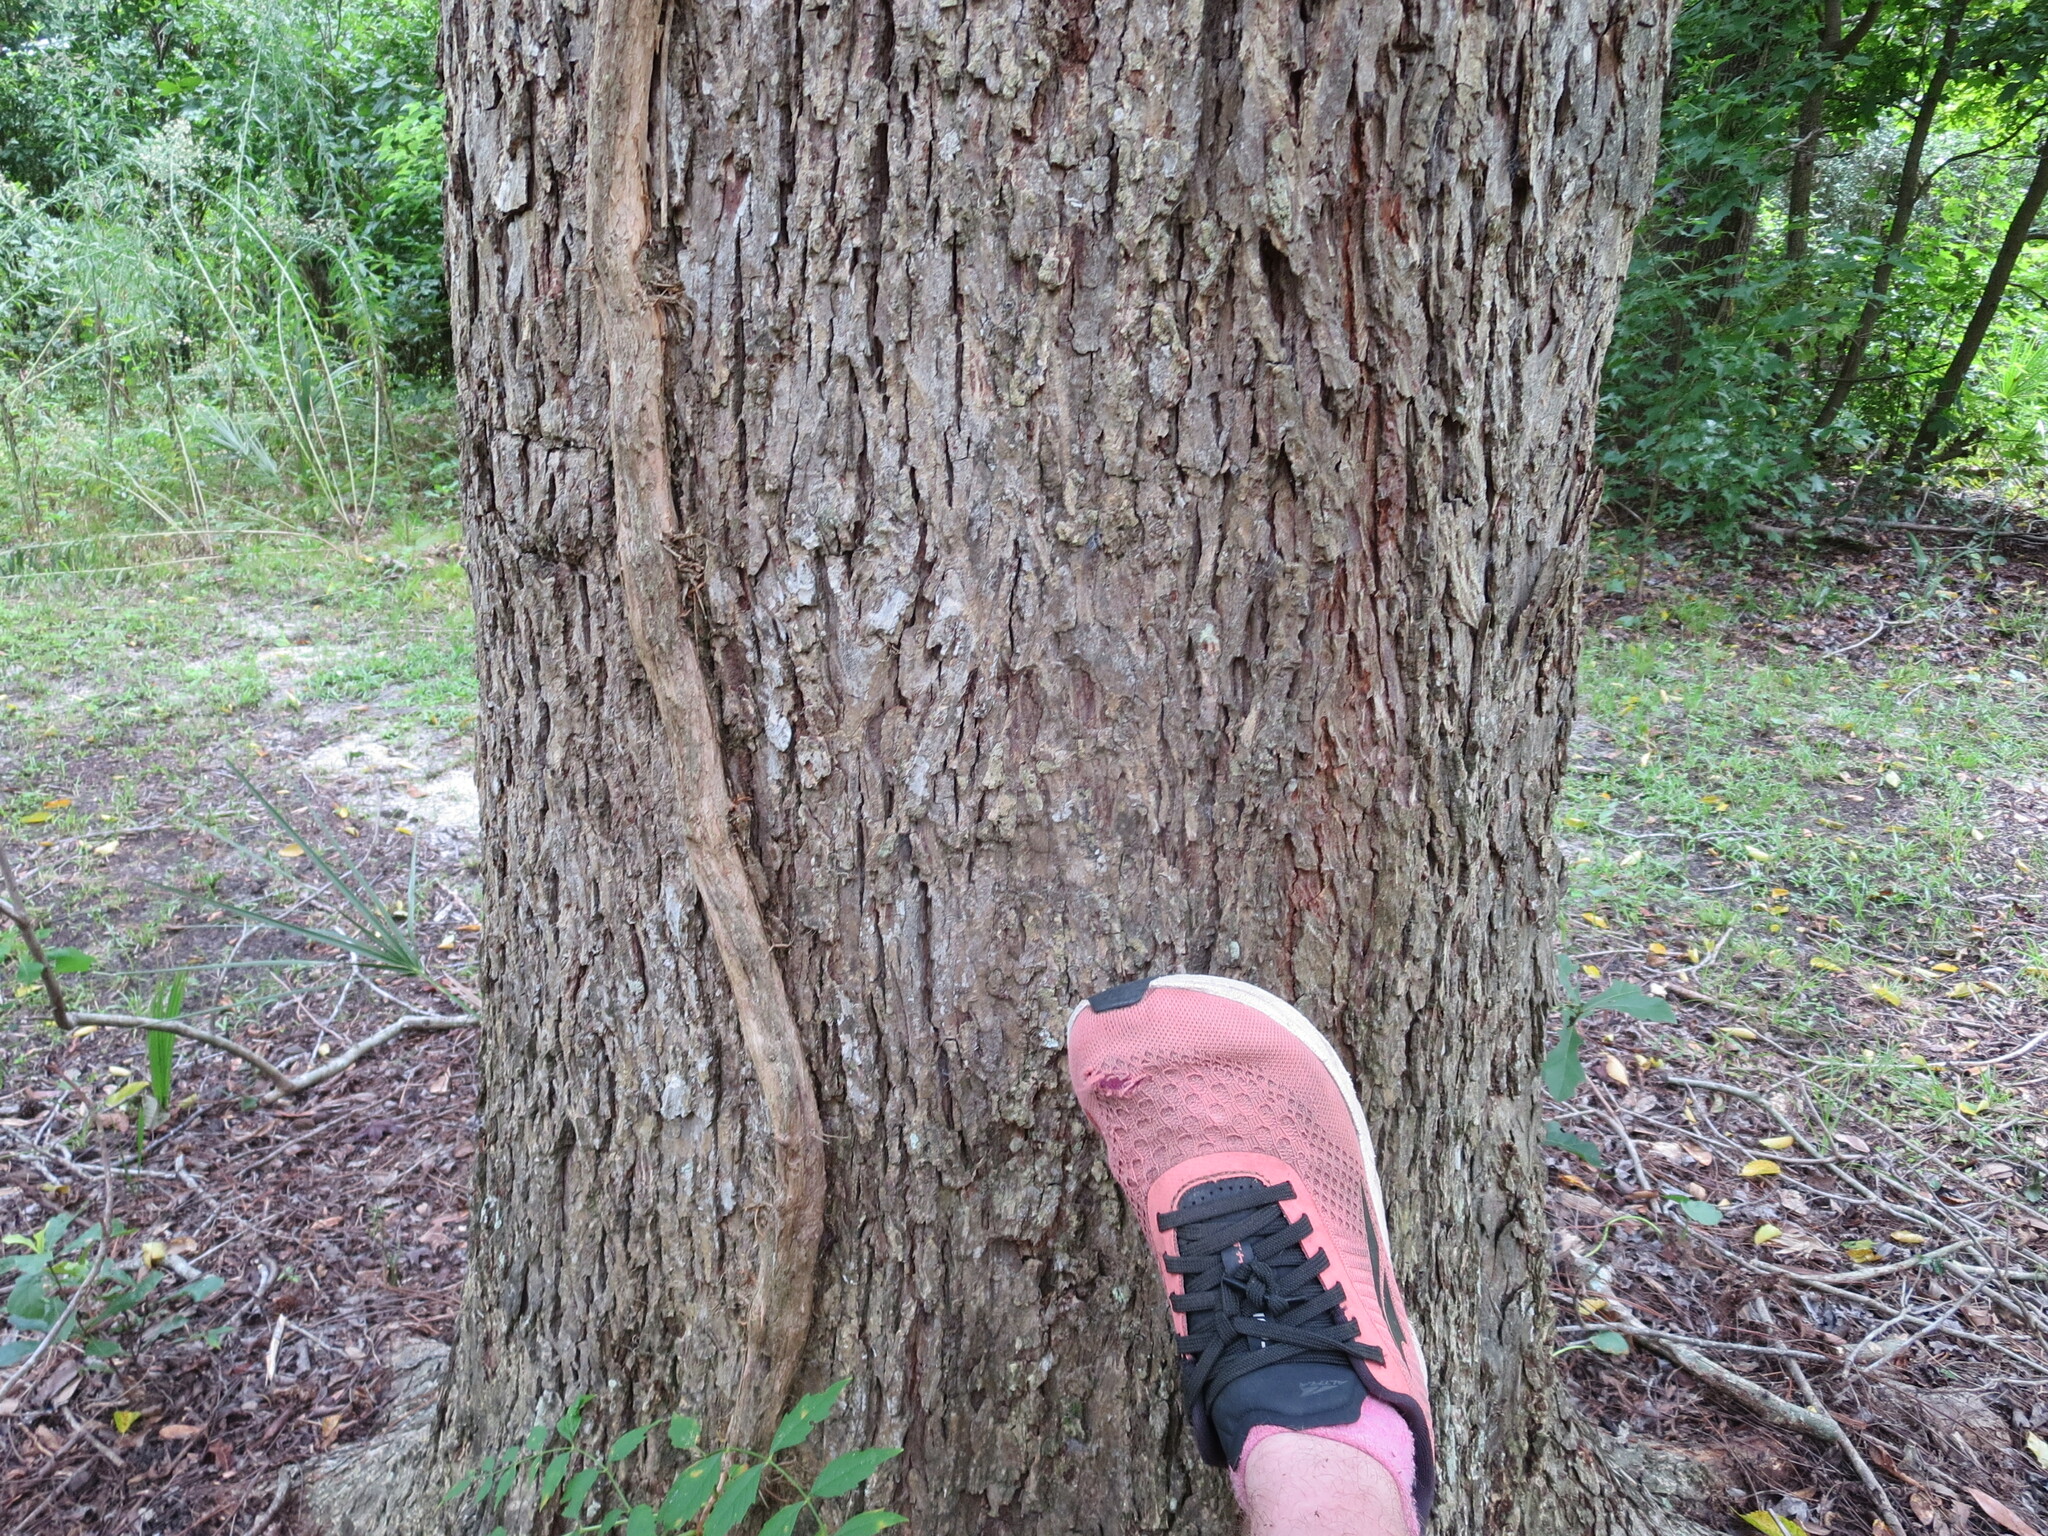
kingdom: Plantae
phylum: Tracheophyta
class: Magnoliopsida
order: Fagales
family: Juglandaceae
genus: Carya
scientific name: Carya illinoinensis
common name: Pecan
